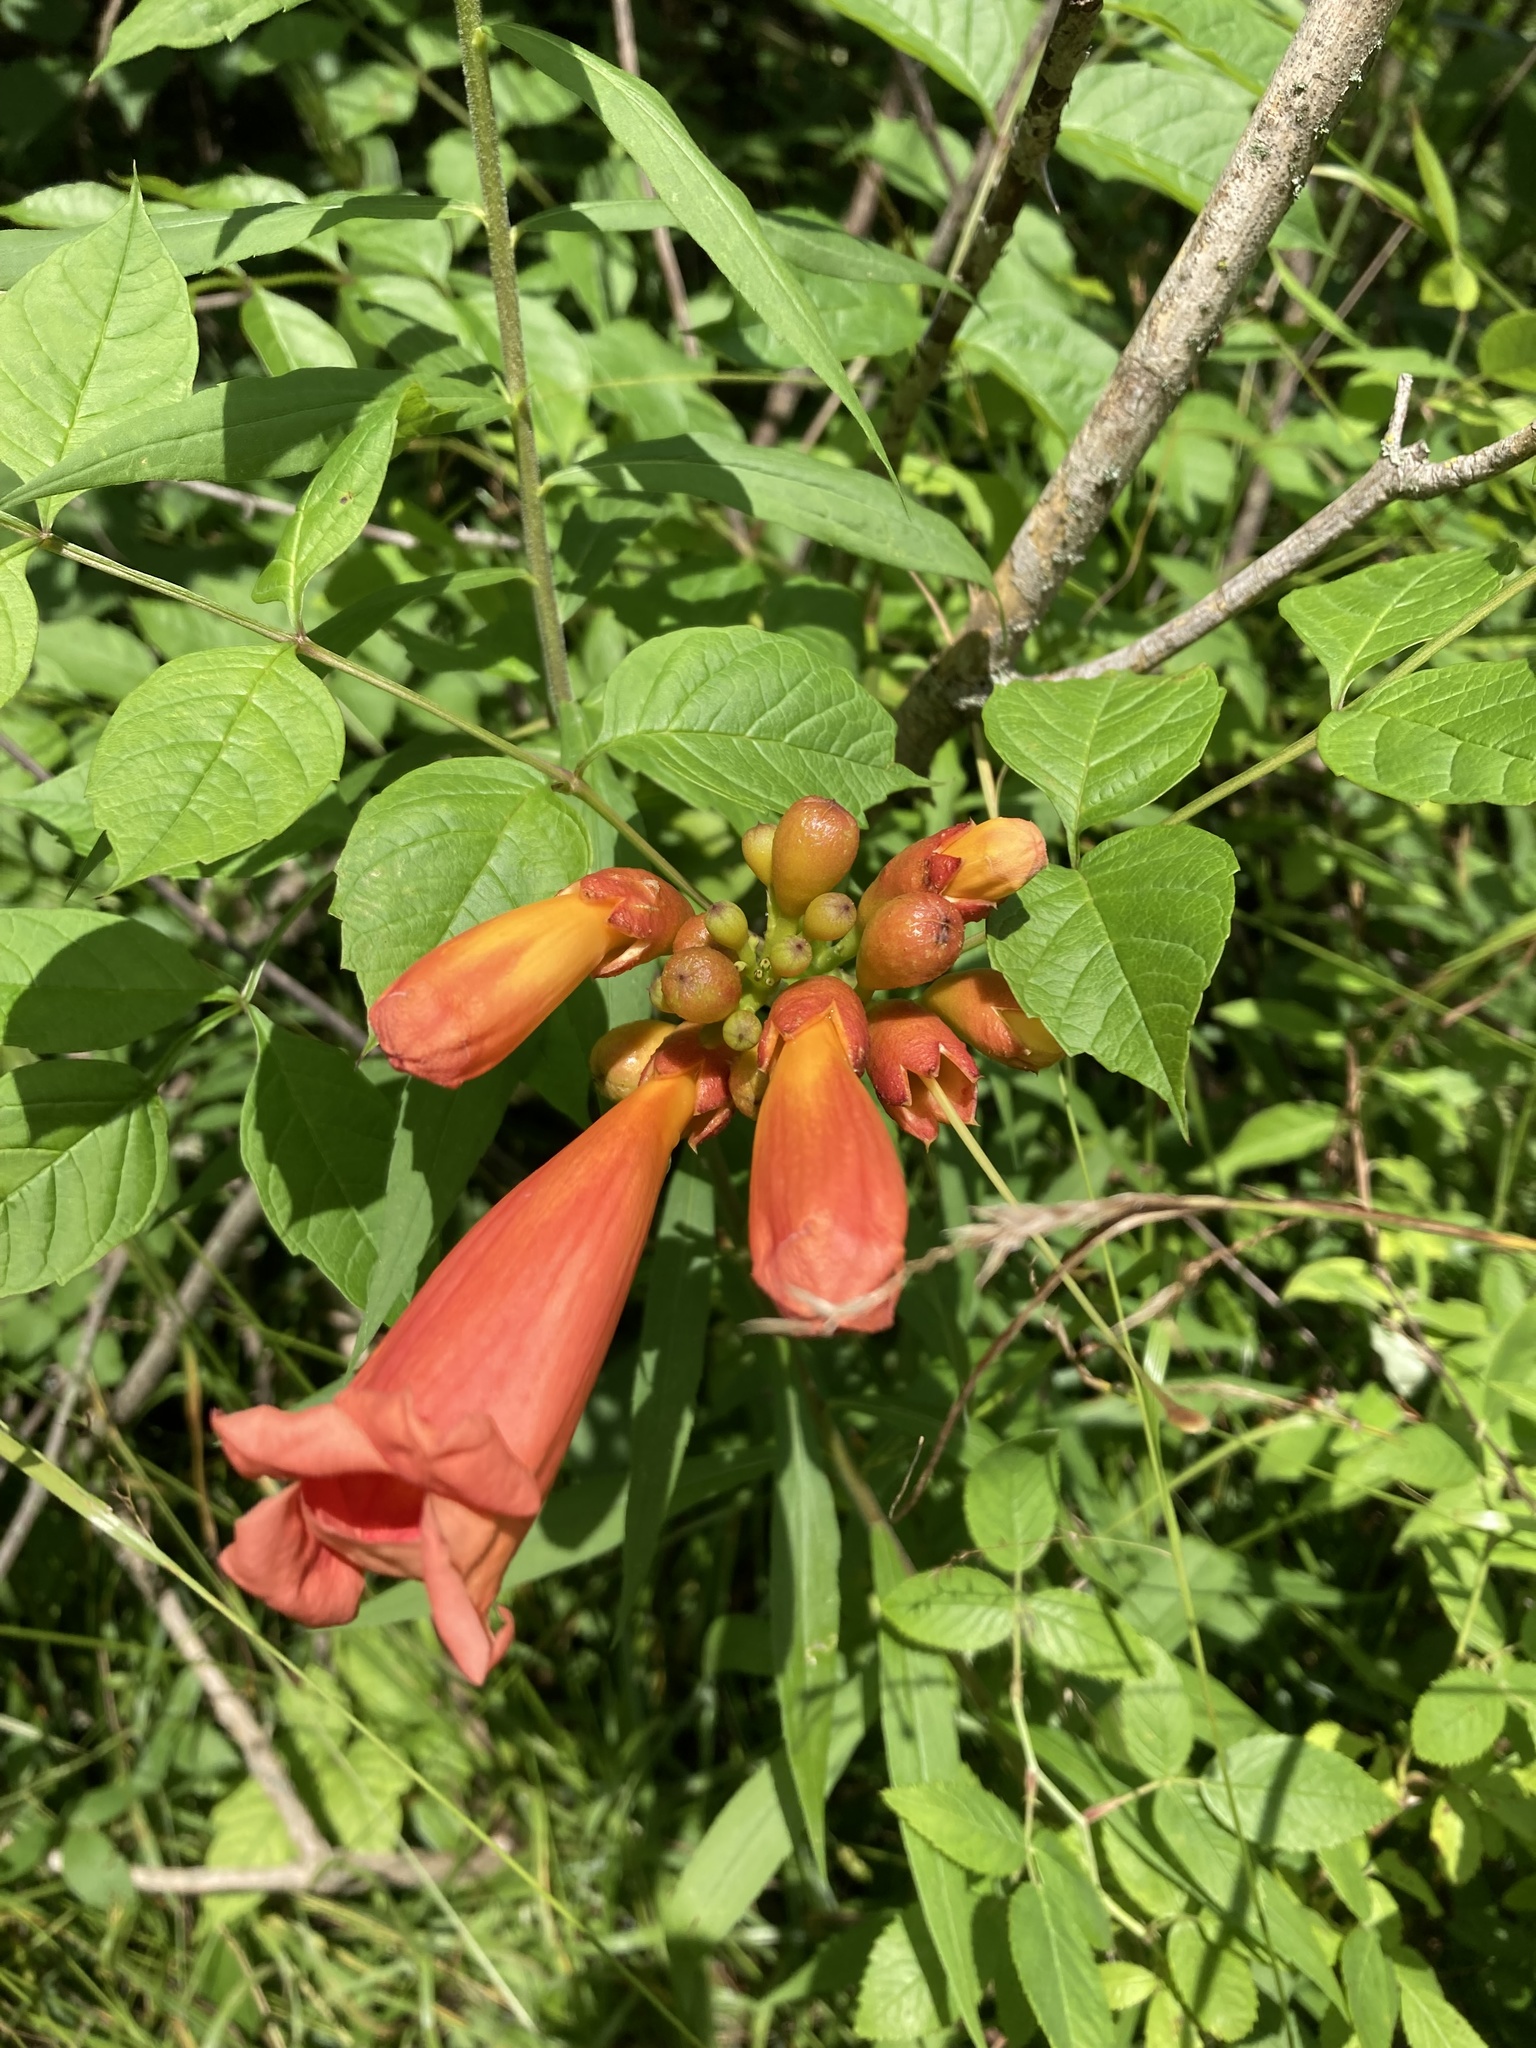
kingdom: Plantae
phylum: Tracheophyta
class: Magnoliopsida
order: Lamiales
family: Bignoniaceae
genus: Campsis
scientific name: Campsis radicans
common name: Trumpet-creeper
